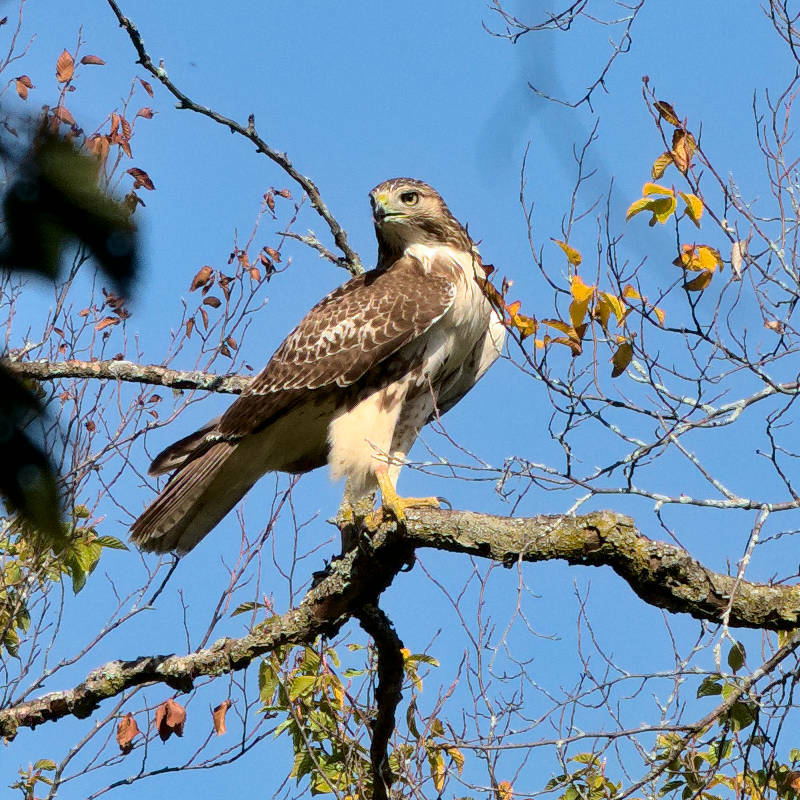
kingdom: Animalia
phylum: Chordata
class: Aves
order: Accipitriformes
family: Accipitridae
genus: Buteo
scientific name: Buteo jamaicensis
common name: Red-tailed hawk
